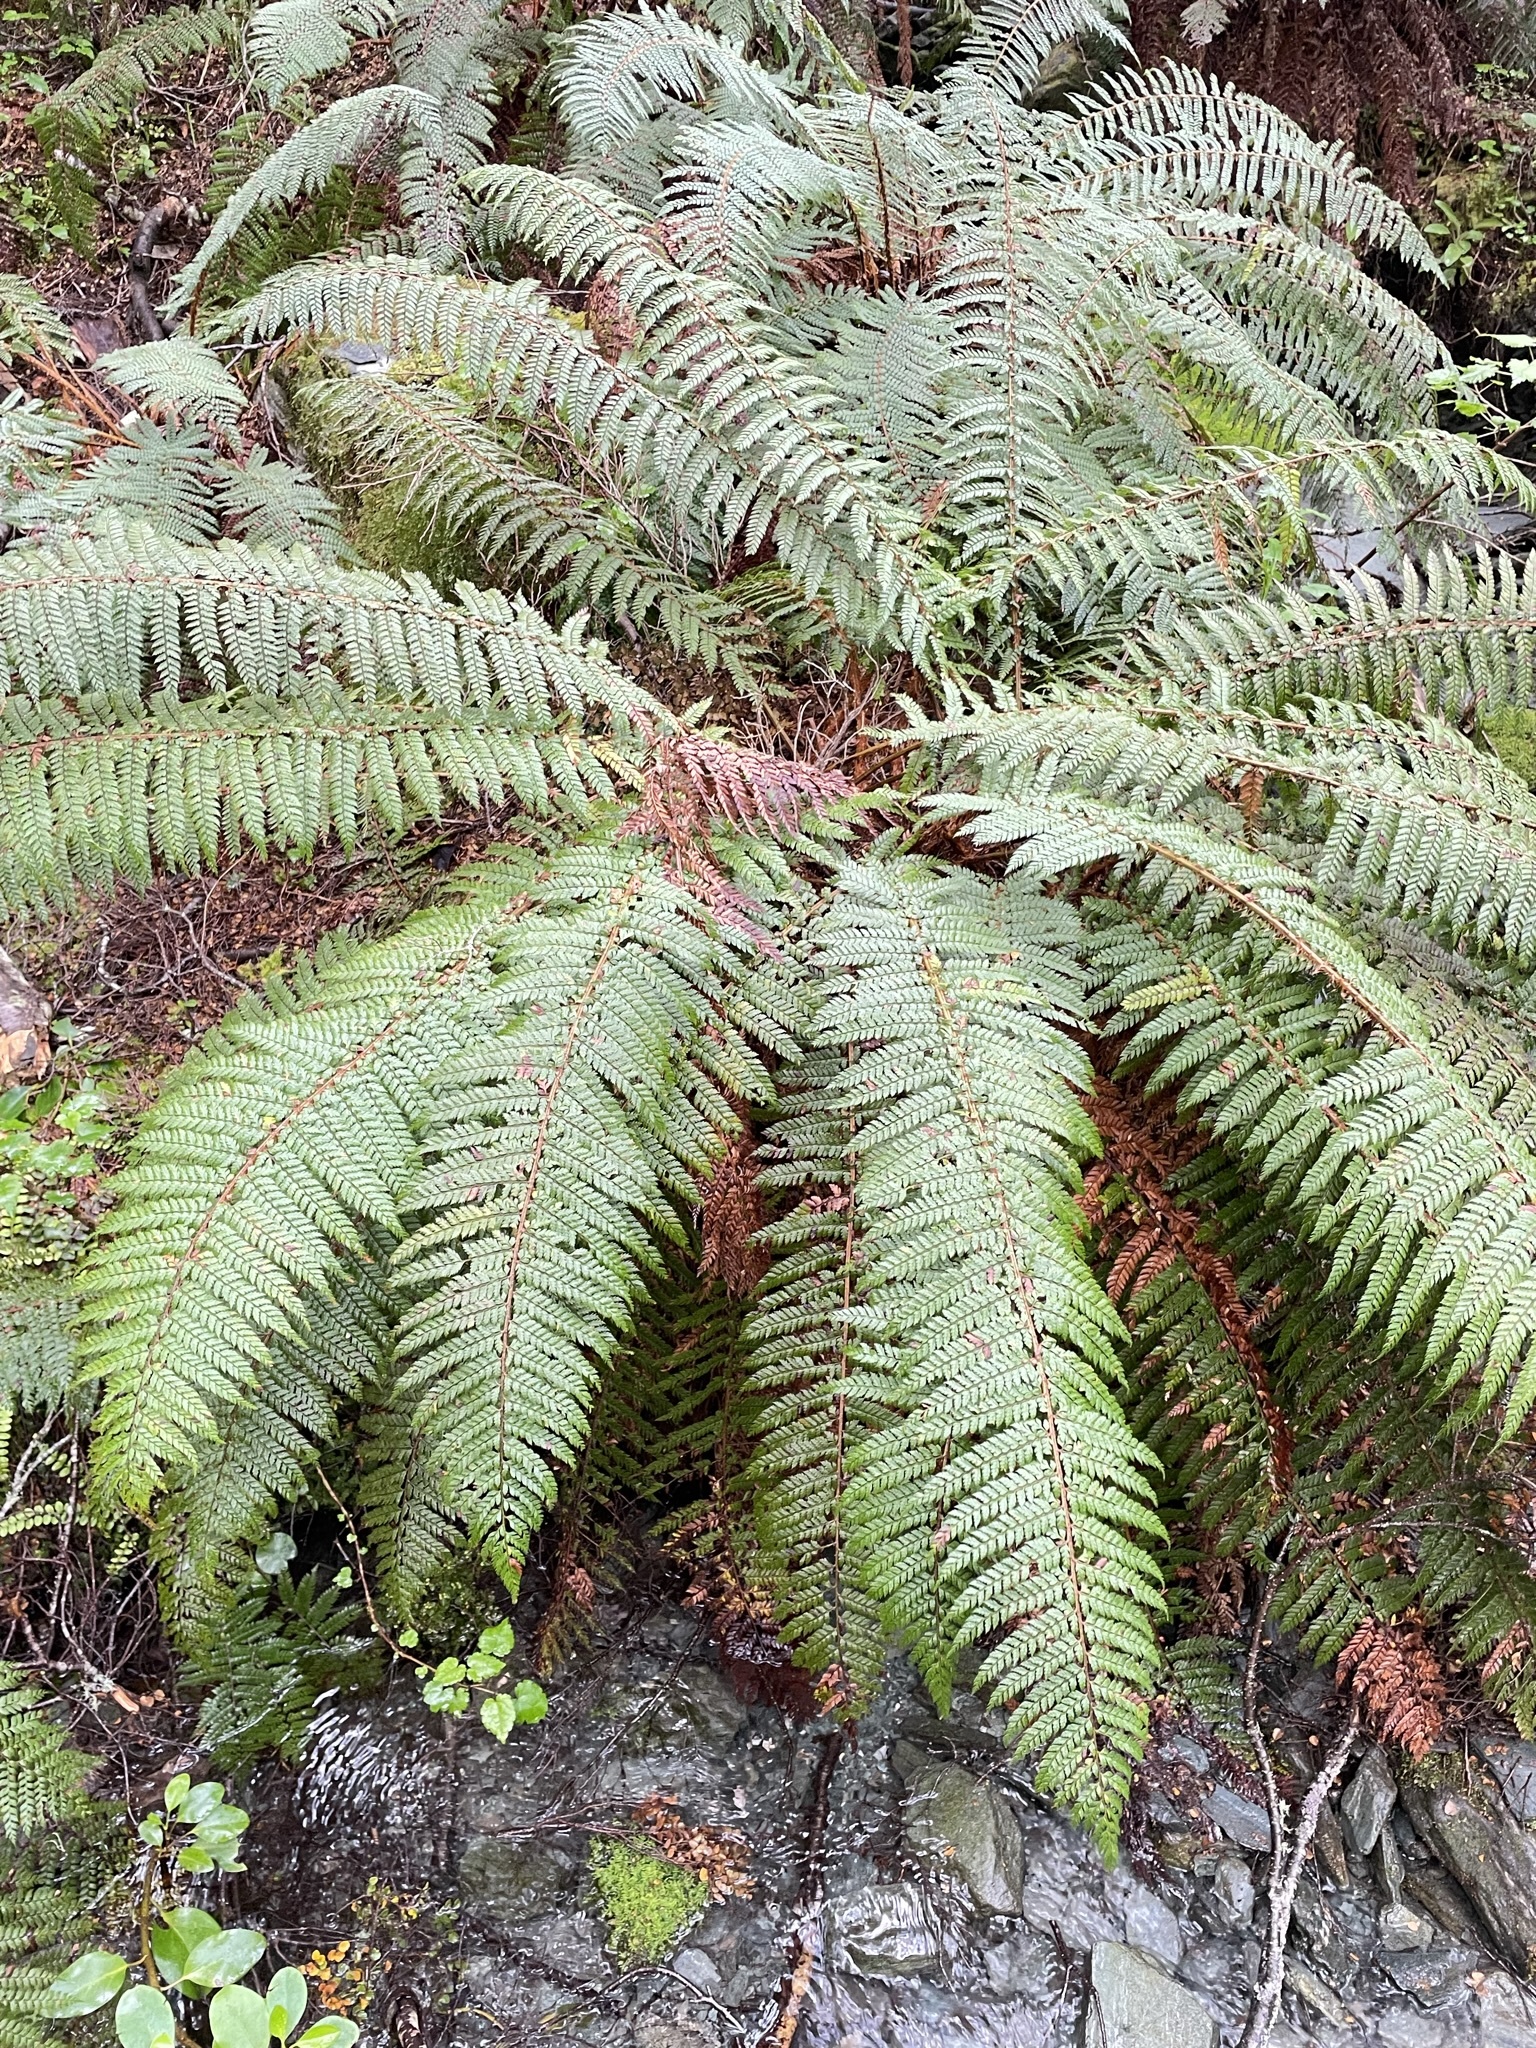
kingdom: Plantae
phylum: Tracheophyta
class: Polypodiopsida
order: Polypodiales
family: Dryopteridaceae
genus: Polystichum
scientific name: Polystichum vestitum
